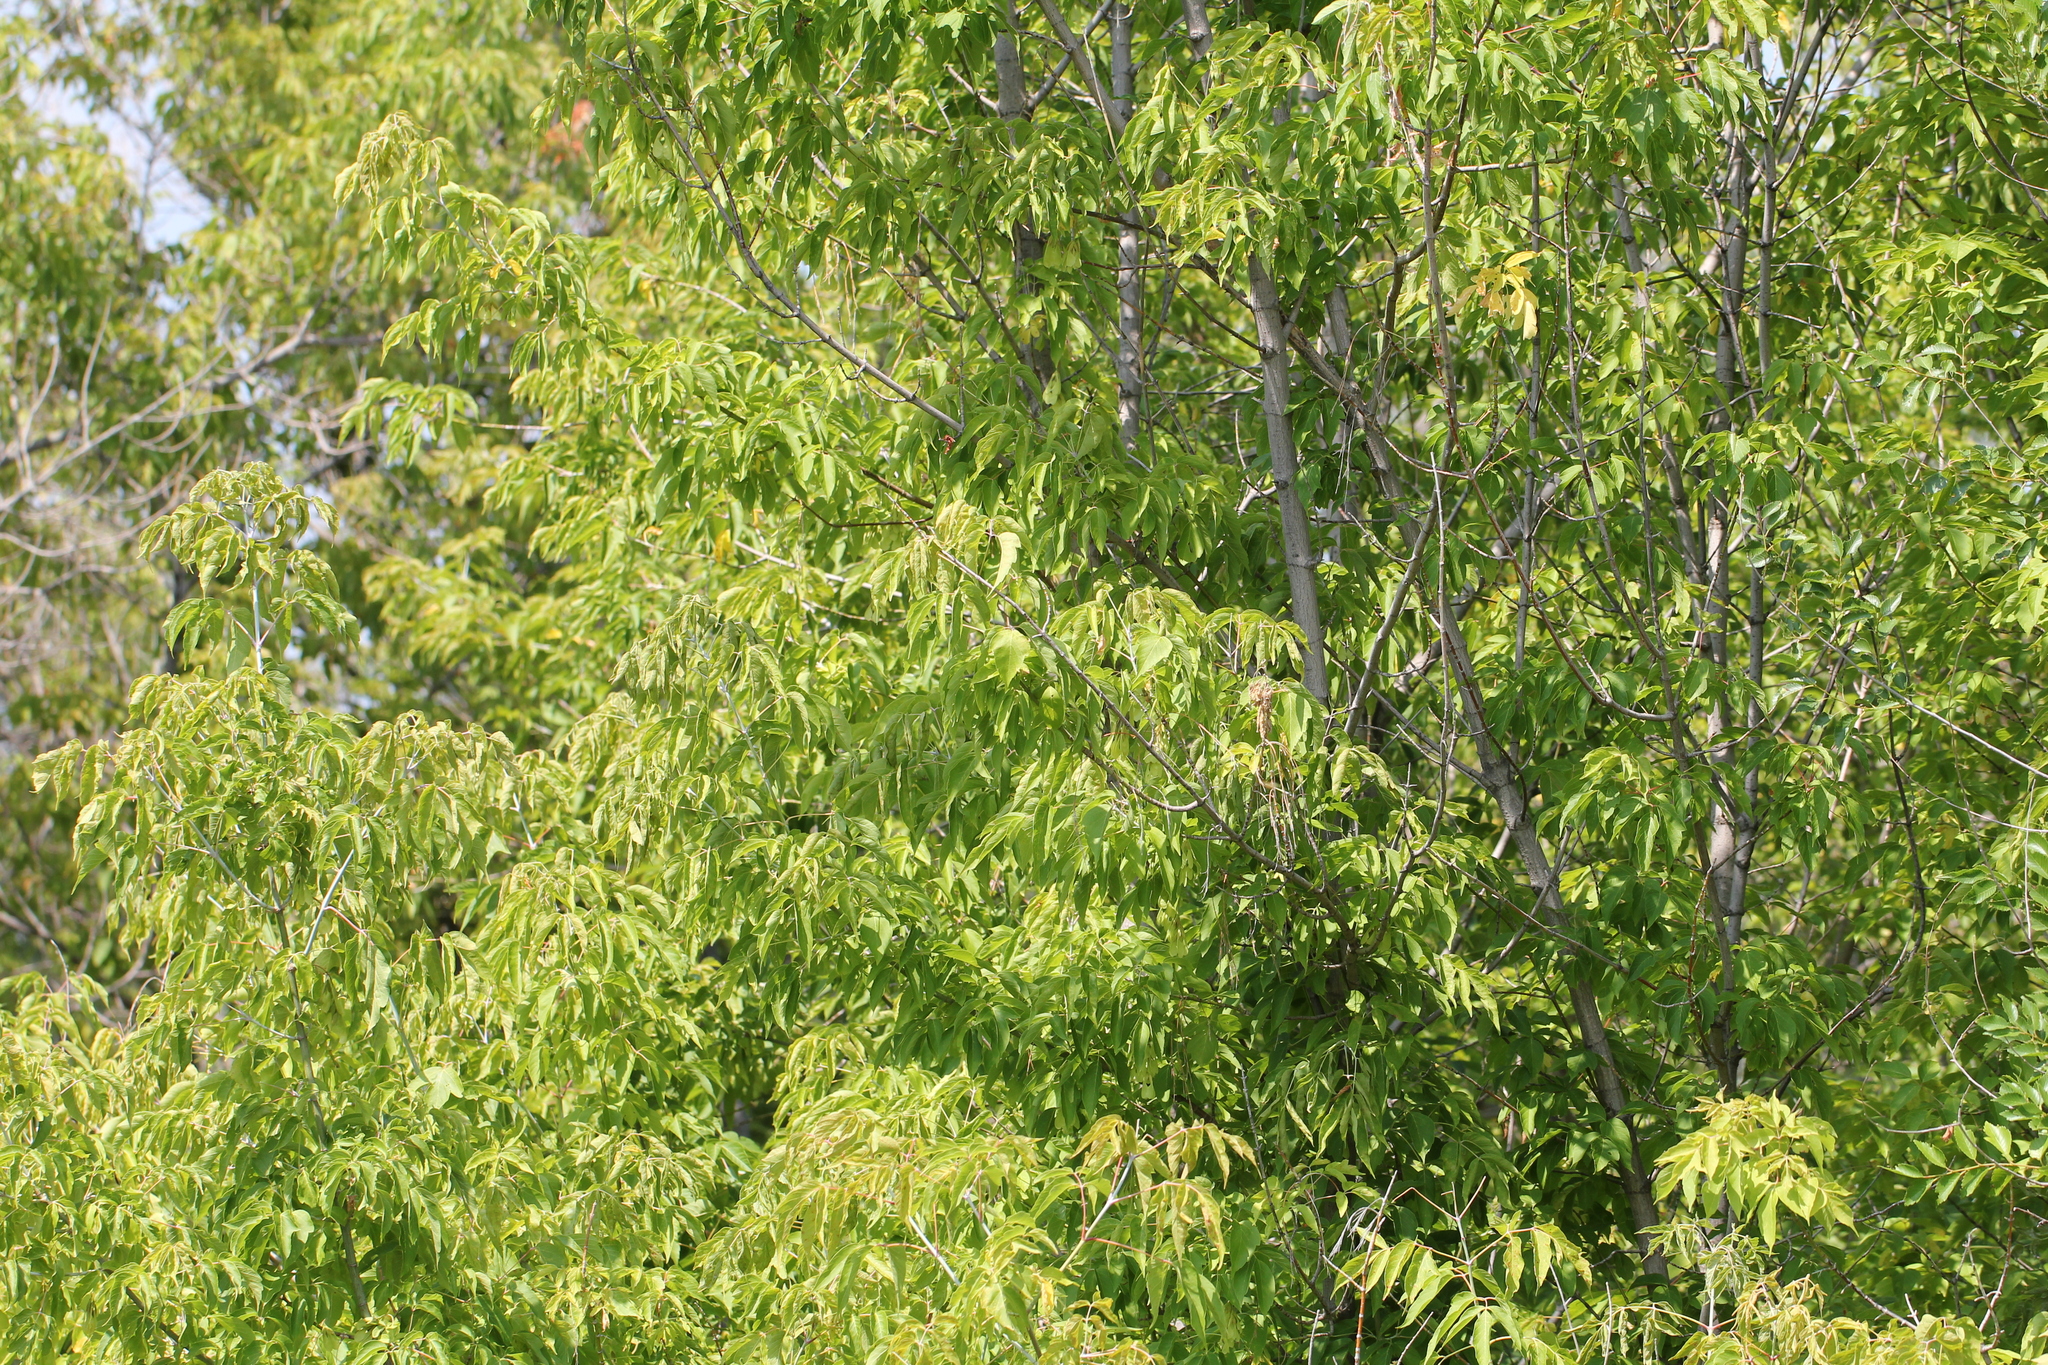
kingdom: Plantae
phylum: Tracheophyta
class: Magnoliopsida
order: Sapindales
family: Sapindaceae
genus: Acer
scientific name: Acer negundo
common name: Ashleaf maple
